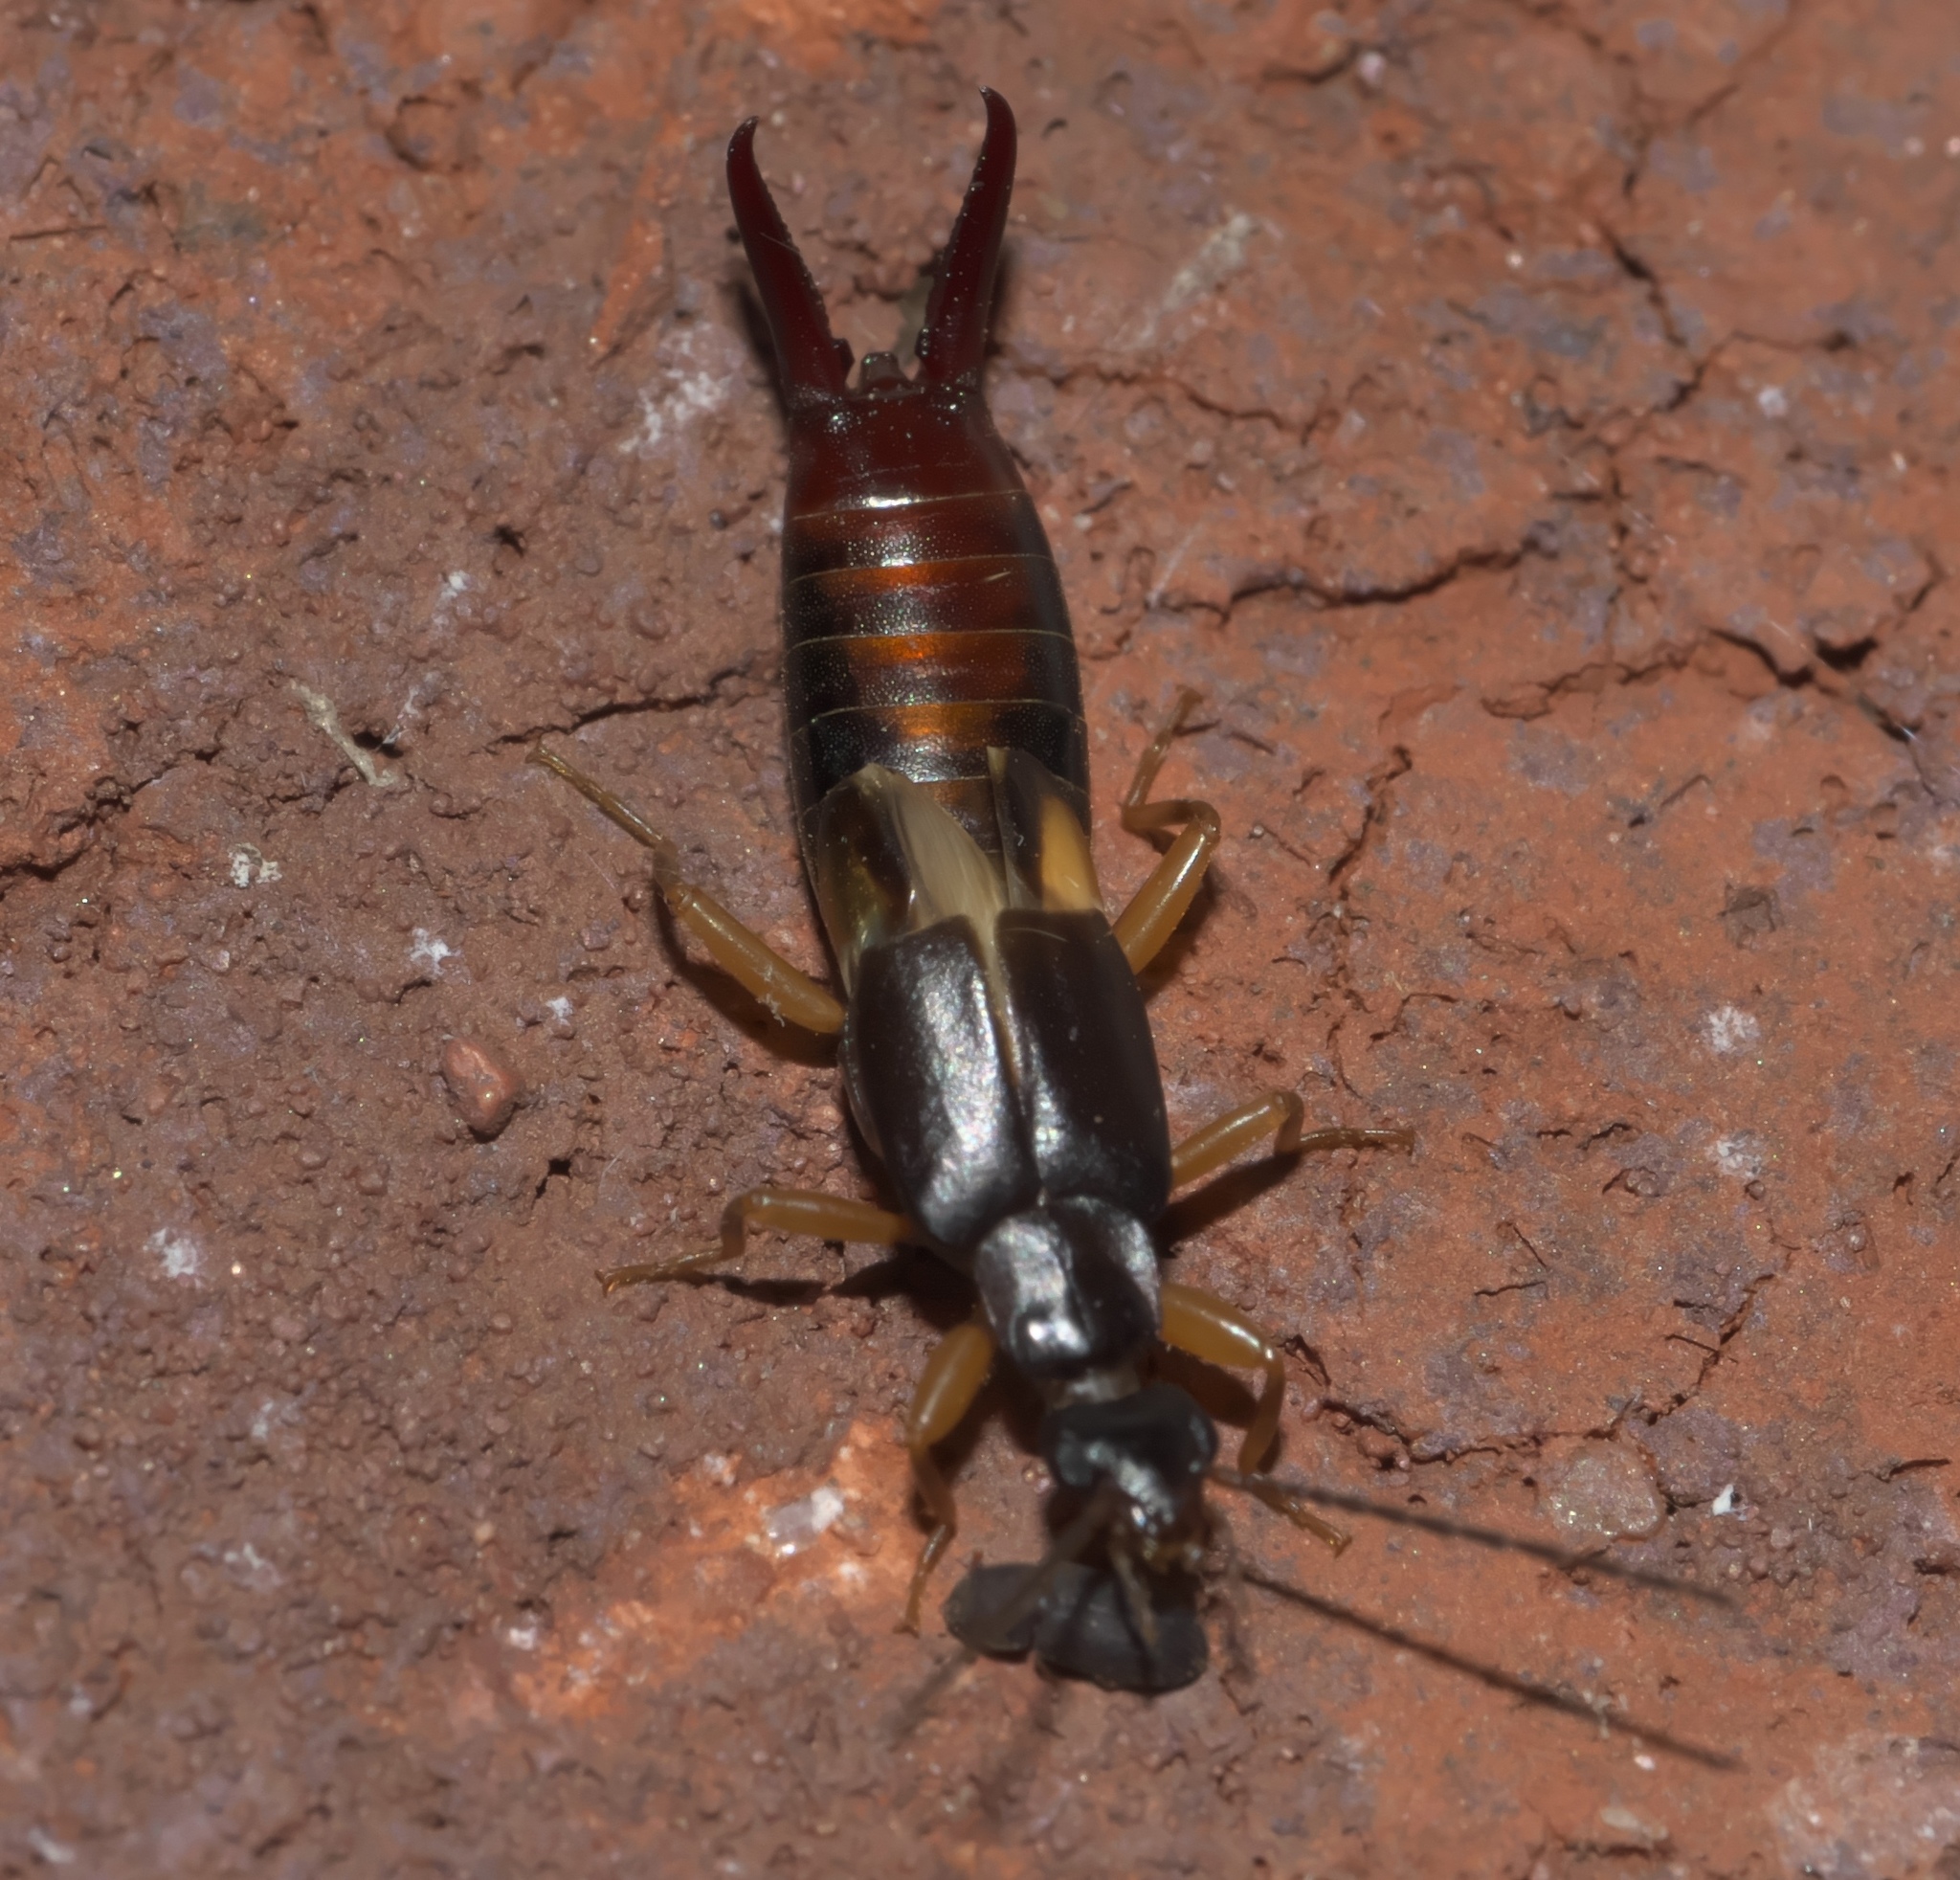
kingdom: Animalia
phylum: Arthropoda
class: Insecta
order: Dermaptera
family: Spongiphoridae
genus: Vostox
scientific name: Vostox brunneipennis
